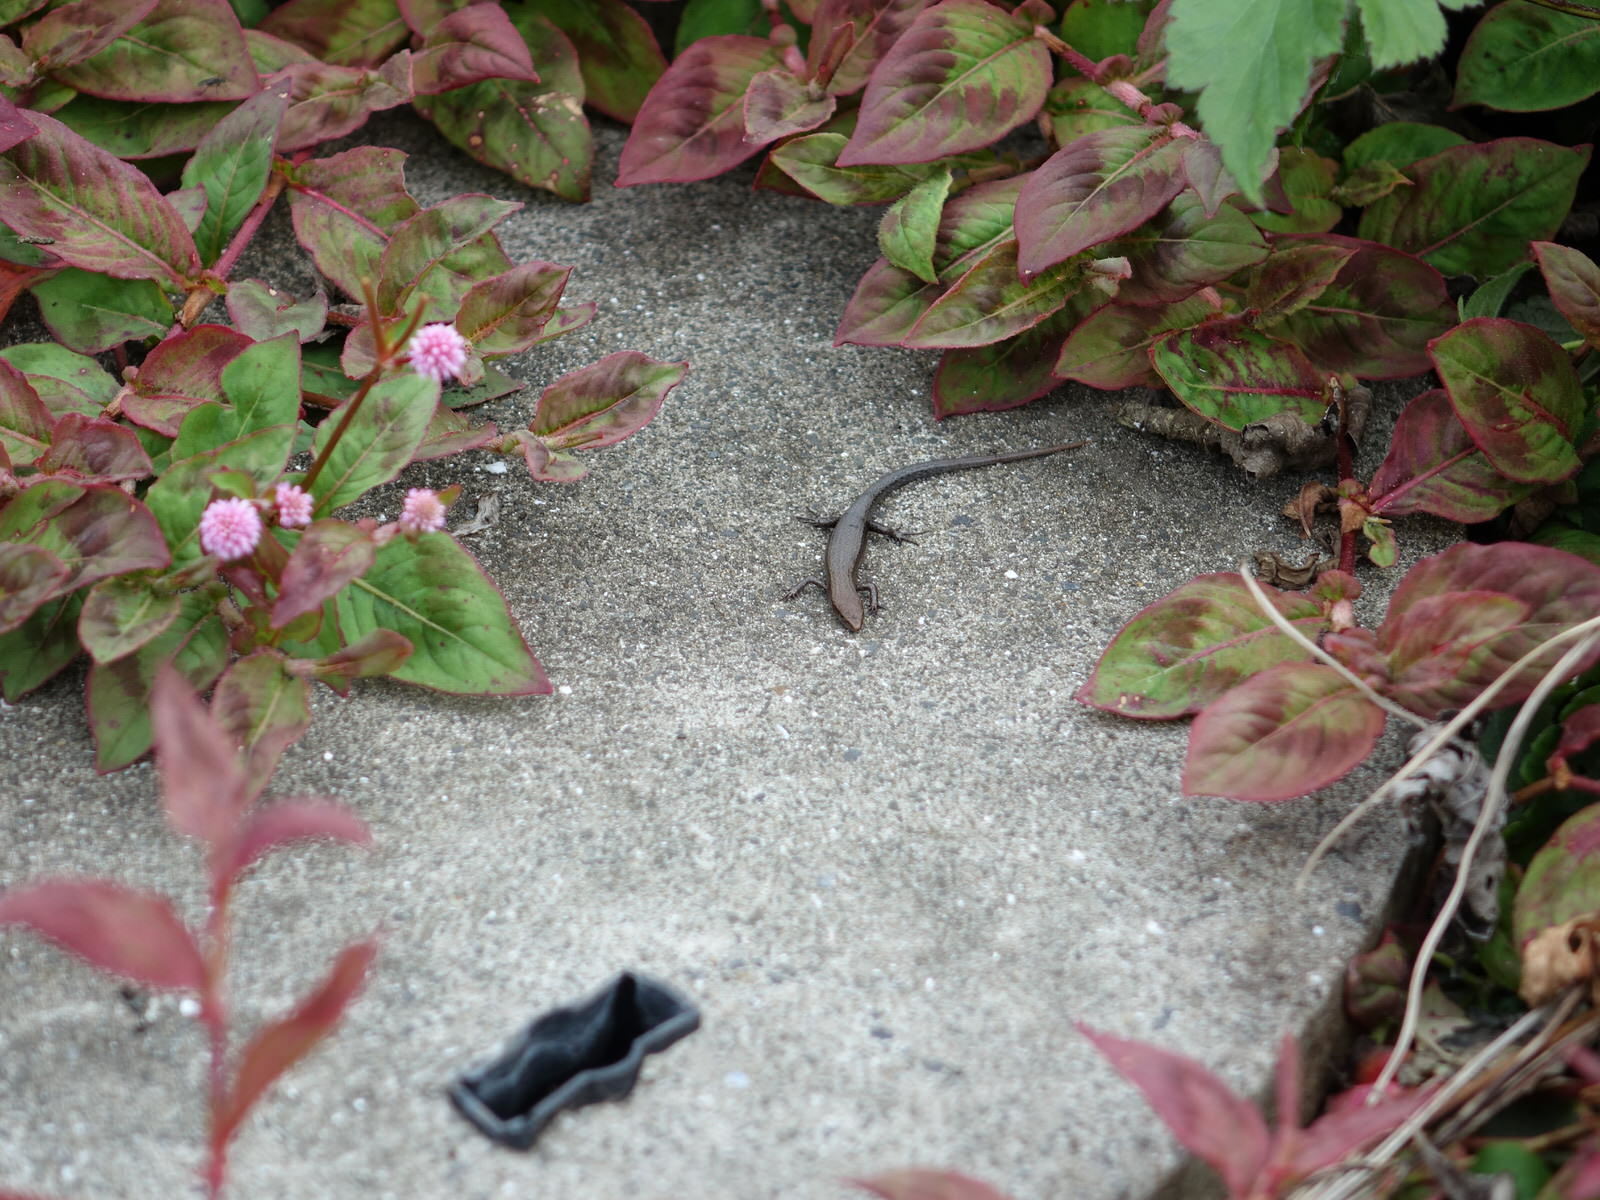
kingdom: Animalia
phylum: Chordata
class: Squamata
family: Scincidae
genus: Lampropholis
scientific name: Lampropholis delicata
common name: Plague skink
